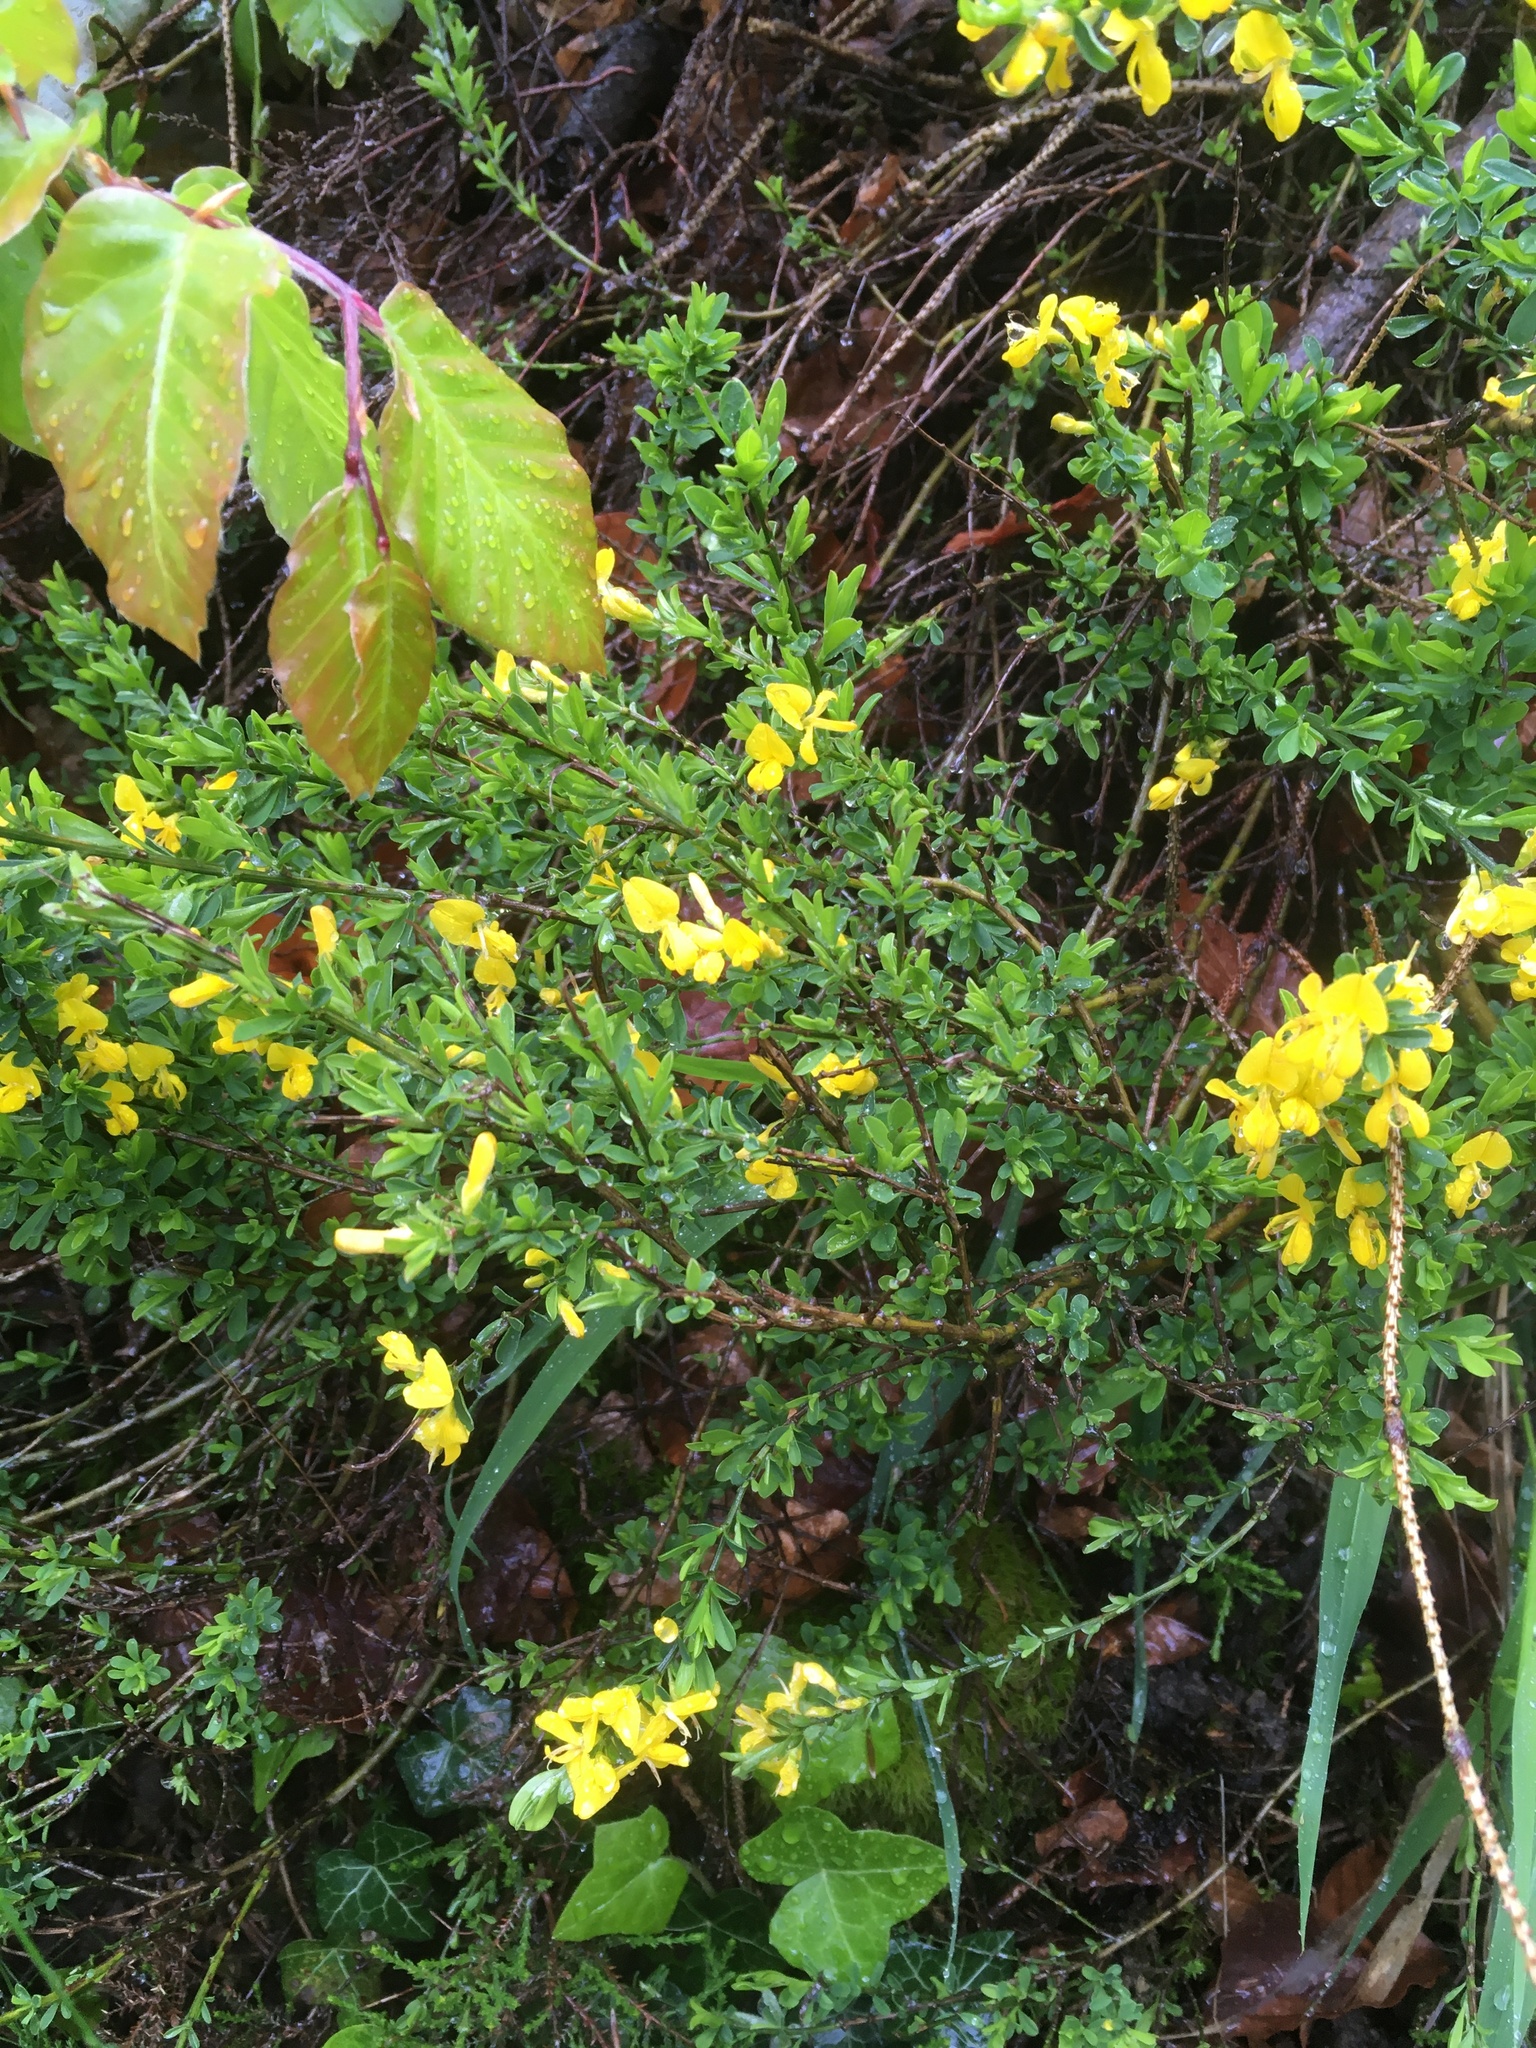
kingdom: Plantae
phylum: Tracheophyta
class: Magnoliopsida
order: Fabales
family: Fabaceae
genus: Cytisus
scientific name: Cytisus scoparius
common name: Scotch broom
